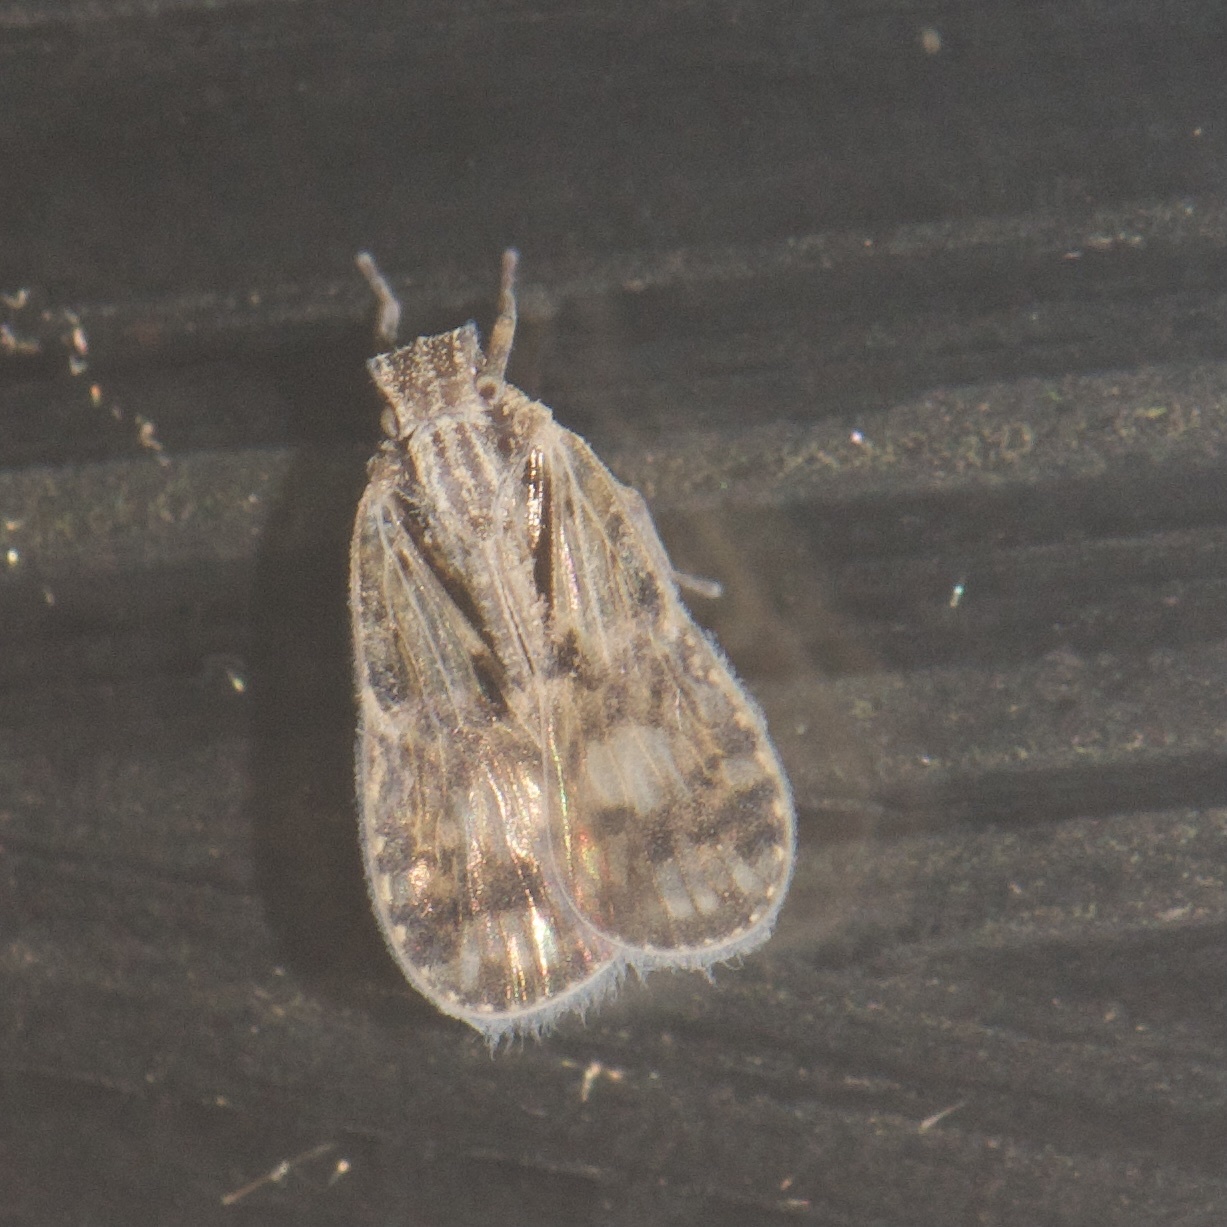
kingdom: Animalia
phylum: Arthropoda
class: Insecta
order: Hemiptera
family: Cixiidae
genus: Bothriocera
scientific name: Bothriocera maculata
